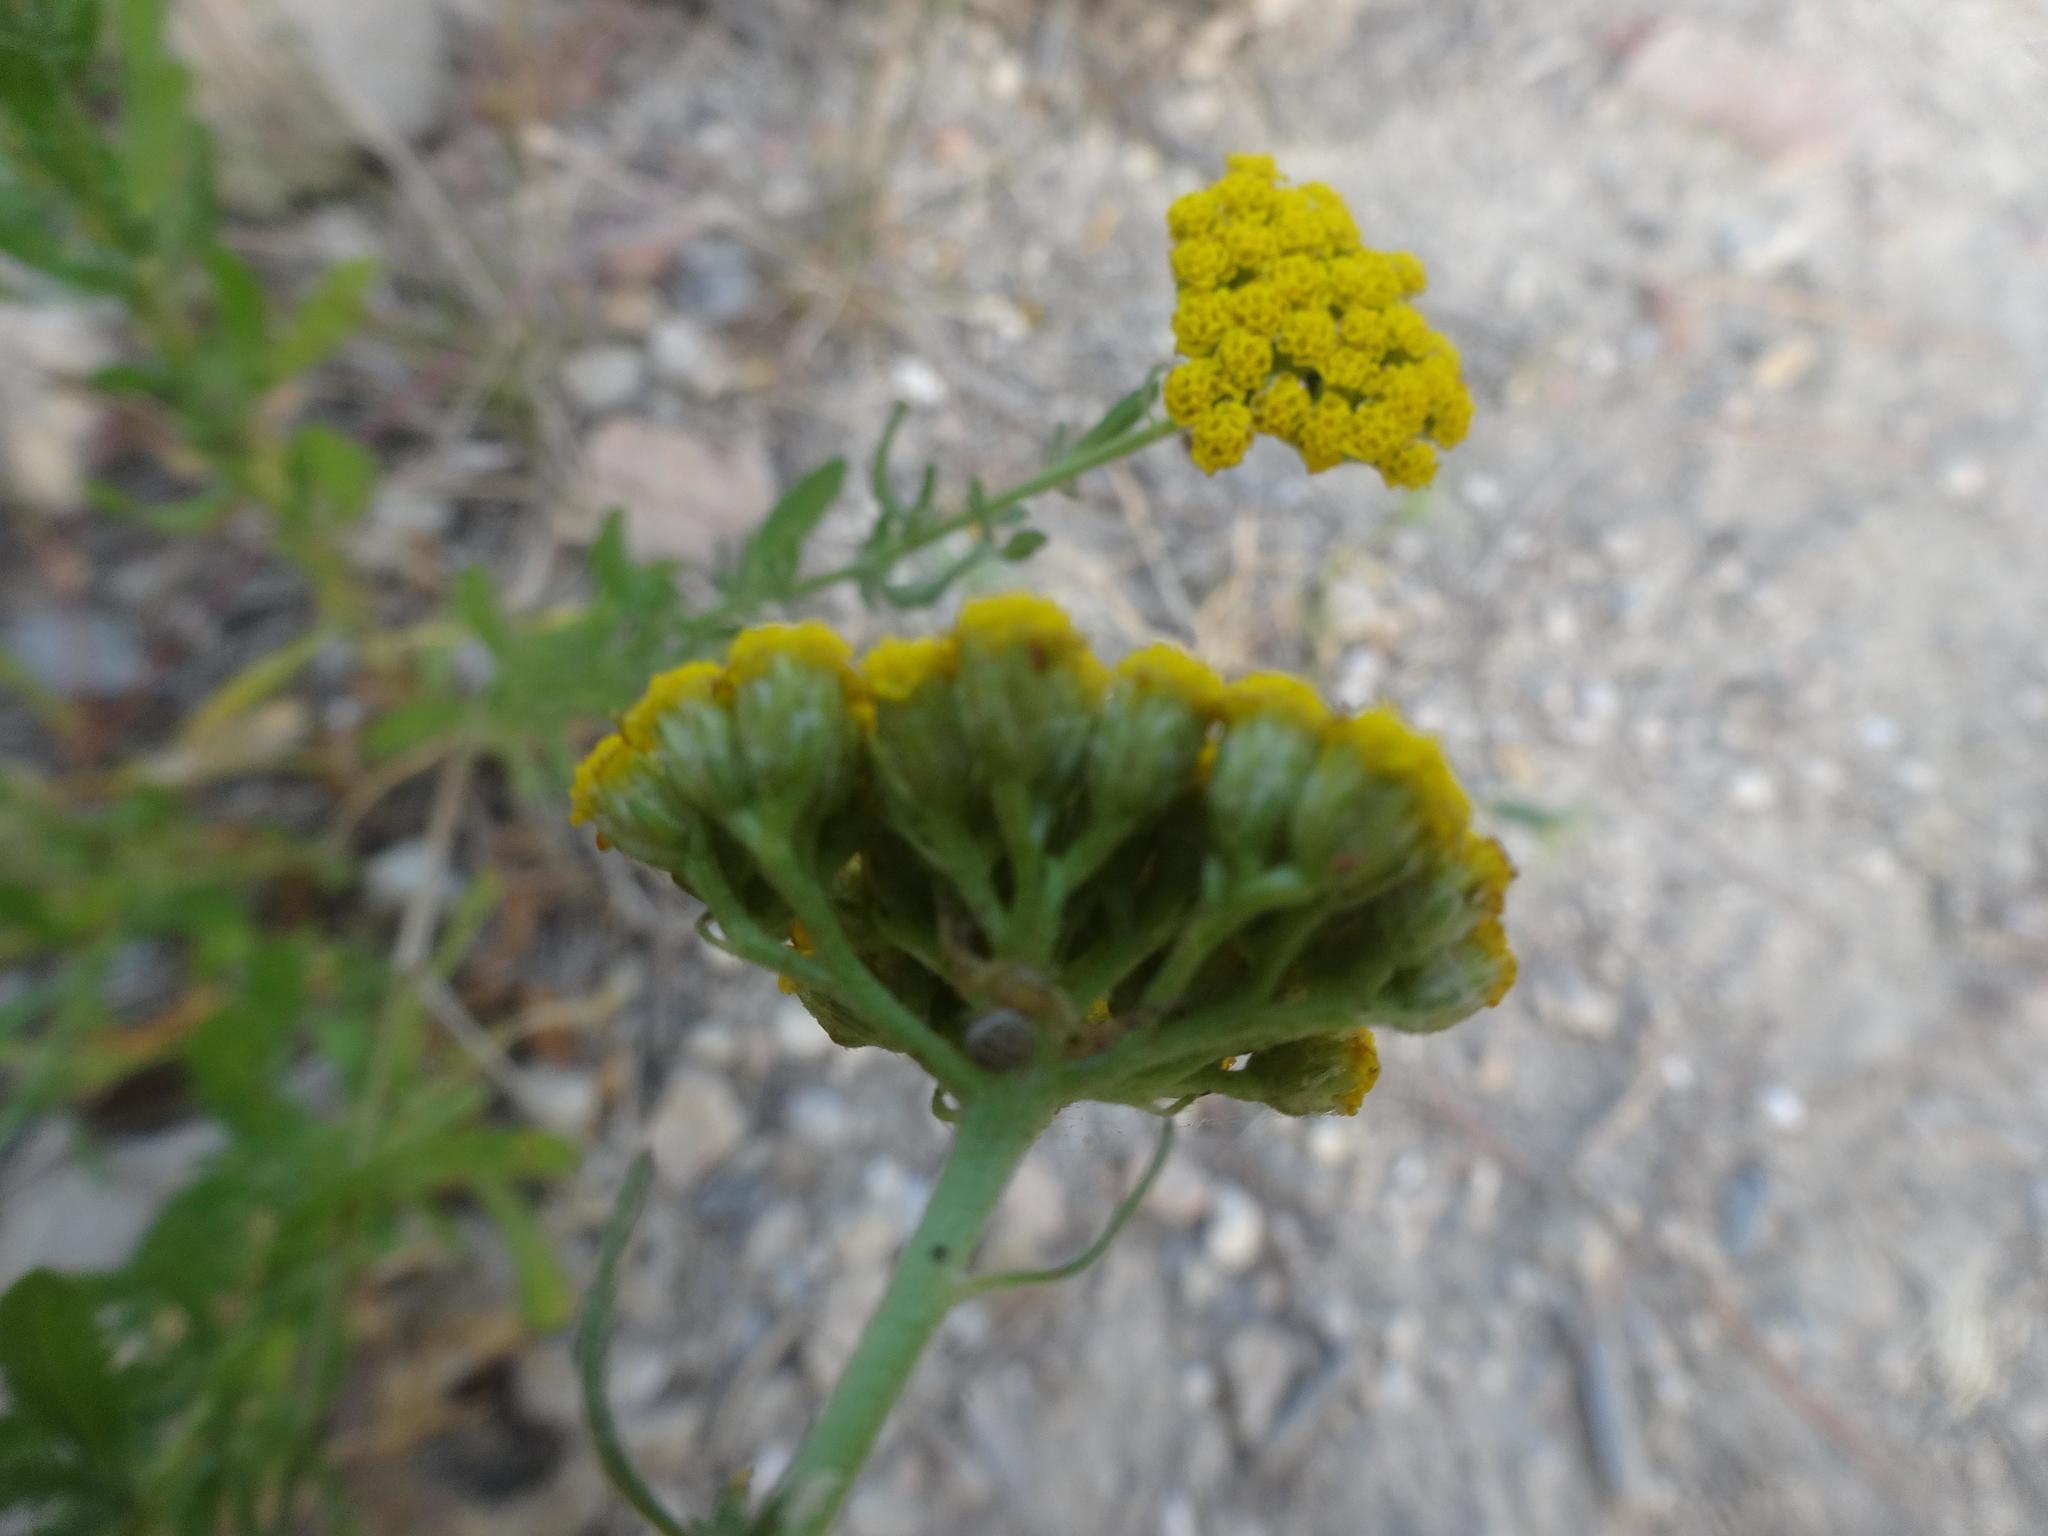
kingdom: Plantae
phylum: Tracheophyta
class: Magnoliopsida
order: Asterales
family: Asteraceae
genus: Achillea
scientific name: Achillea ageratum
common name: Sweet-nancy
